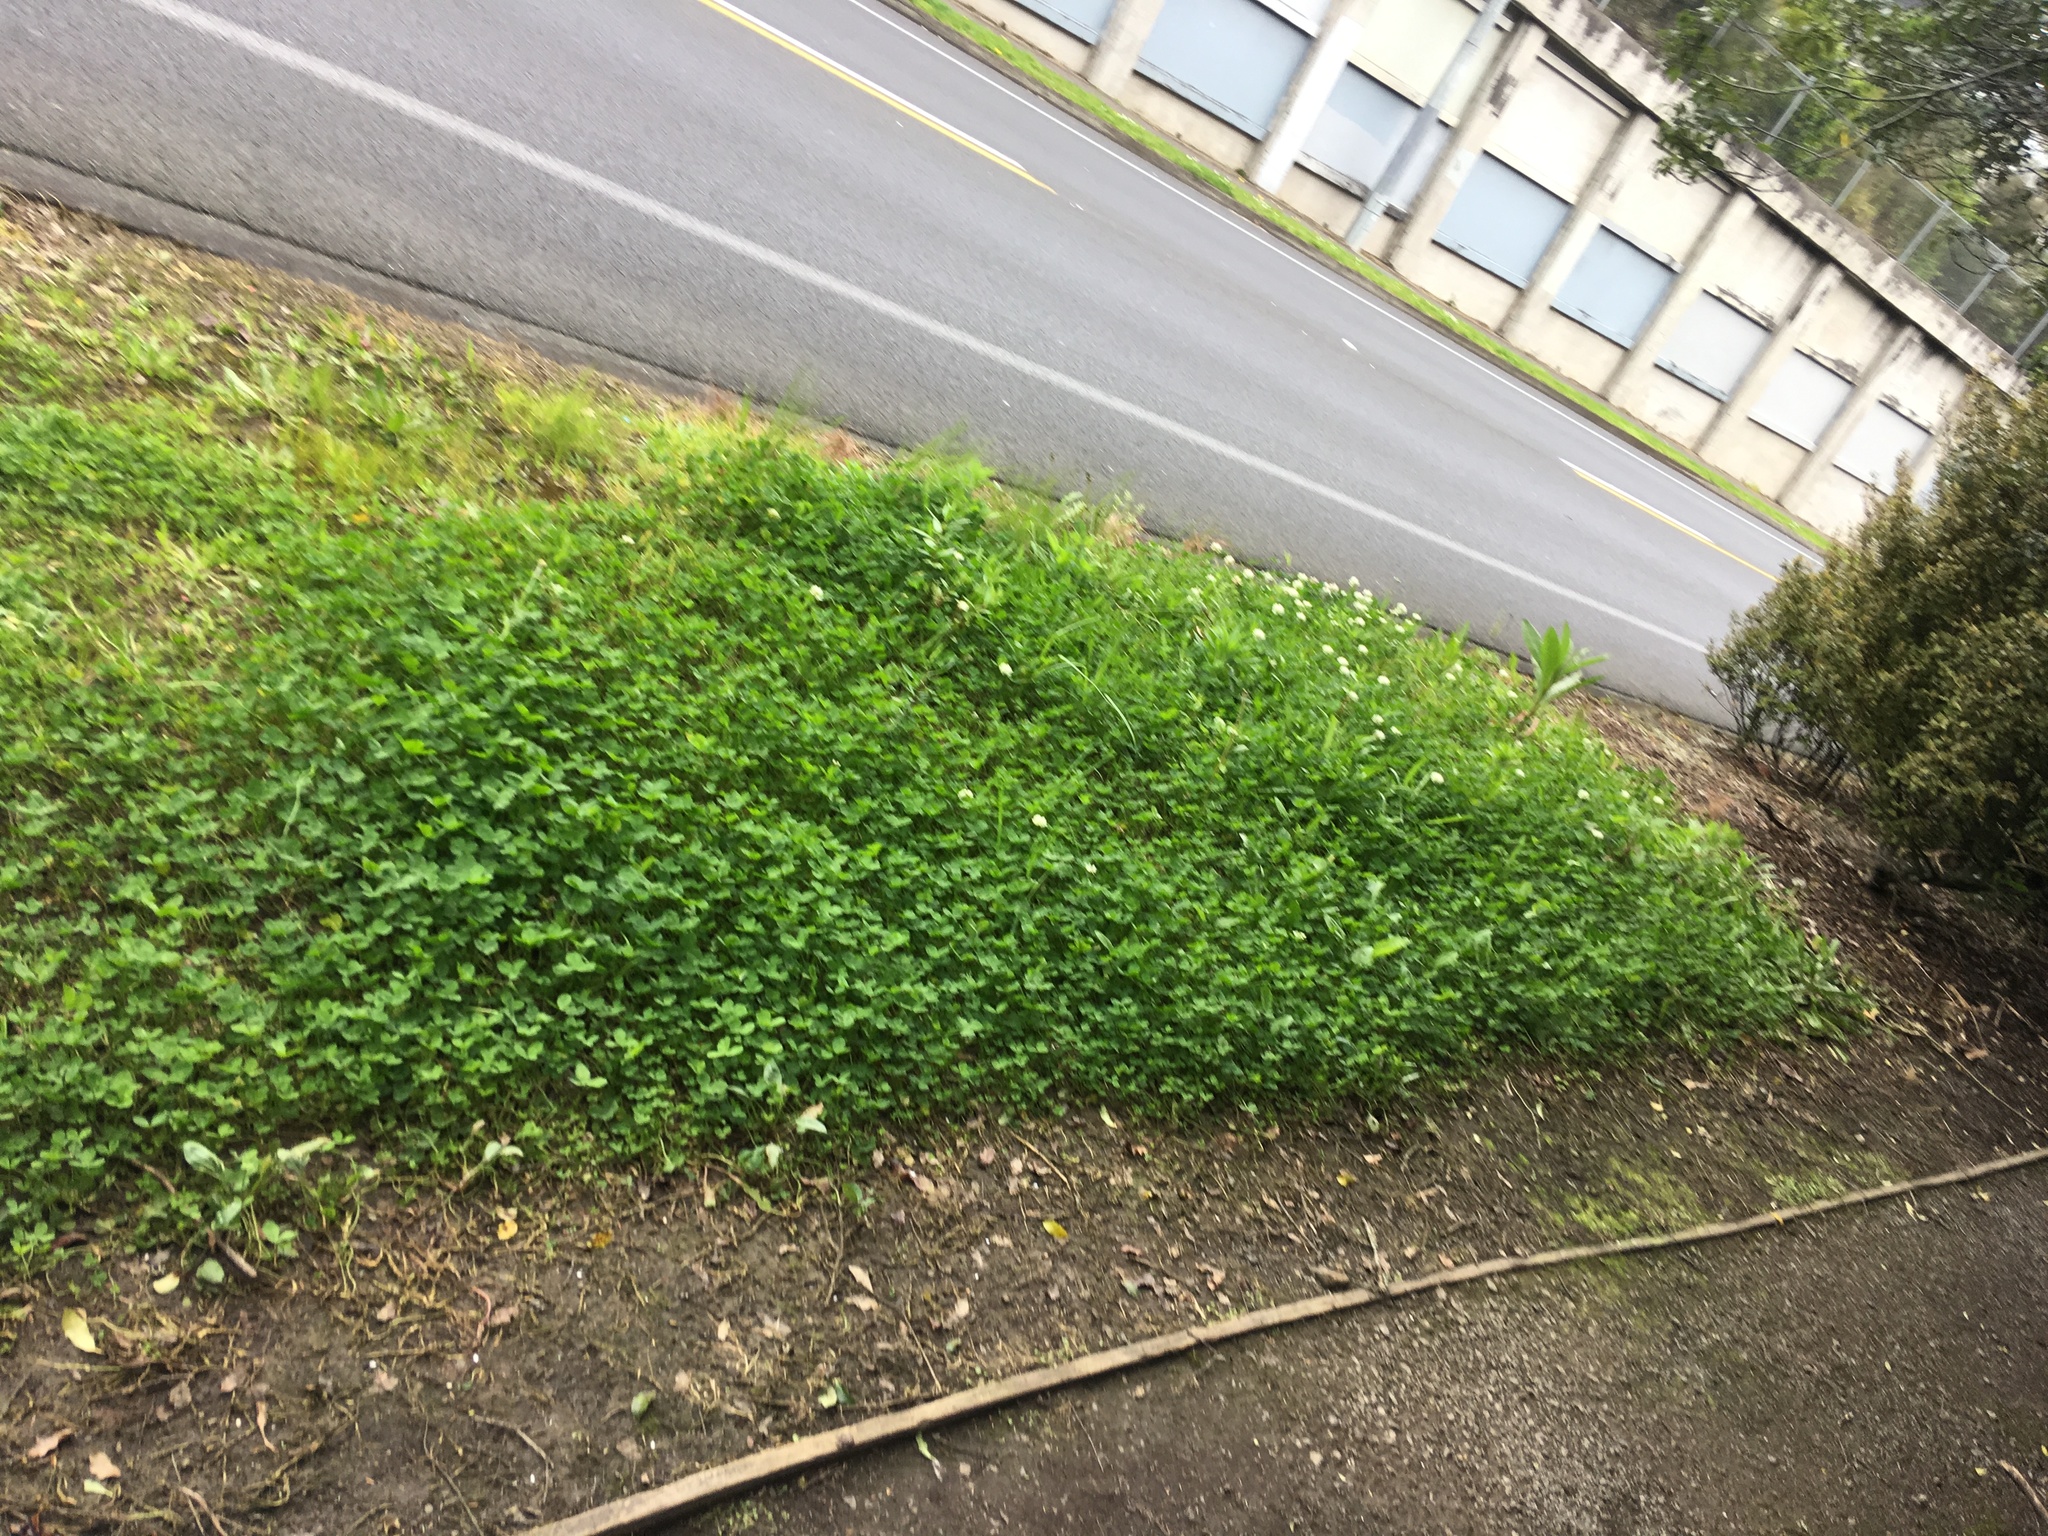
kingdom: Plantae
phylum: Tracheophyta
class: Magnoliopsida
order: Fabales
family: Fabaceae
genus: Trifolium
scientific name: Trifolium repens
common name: White clover
